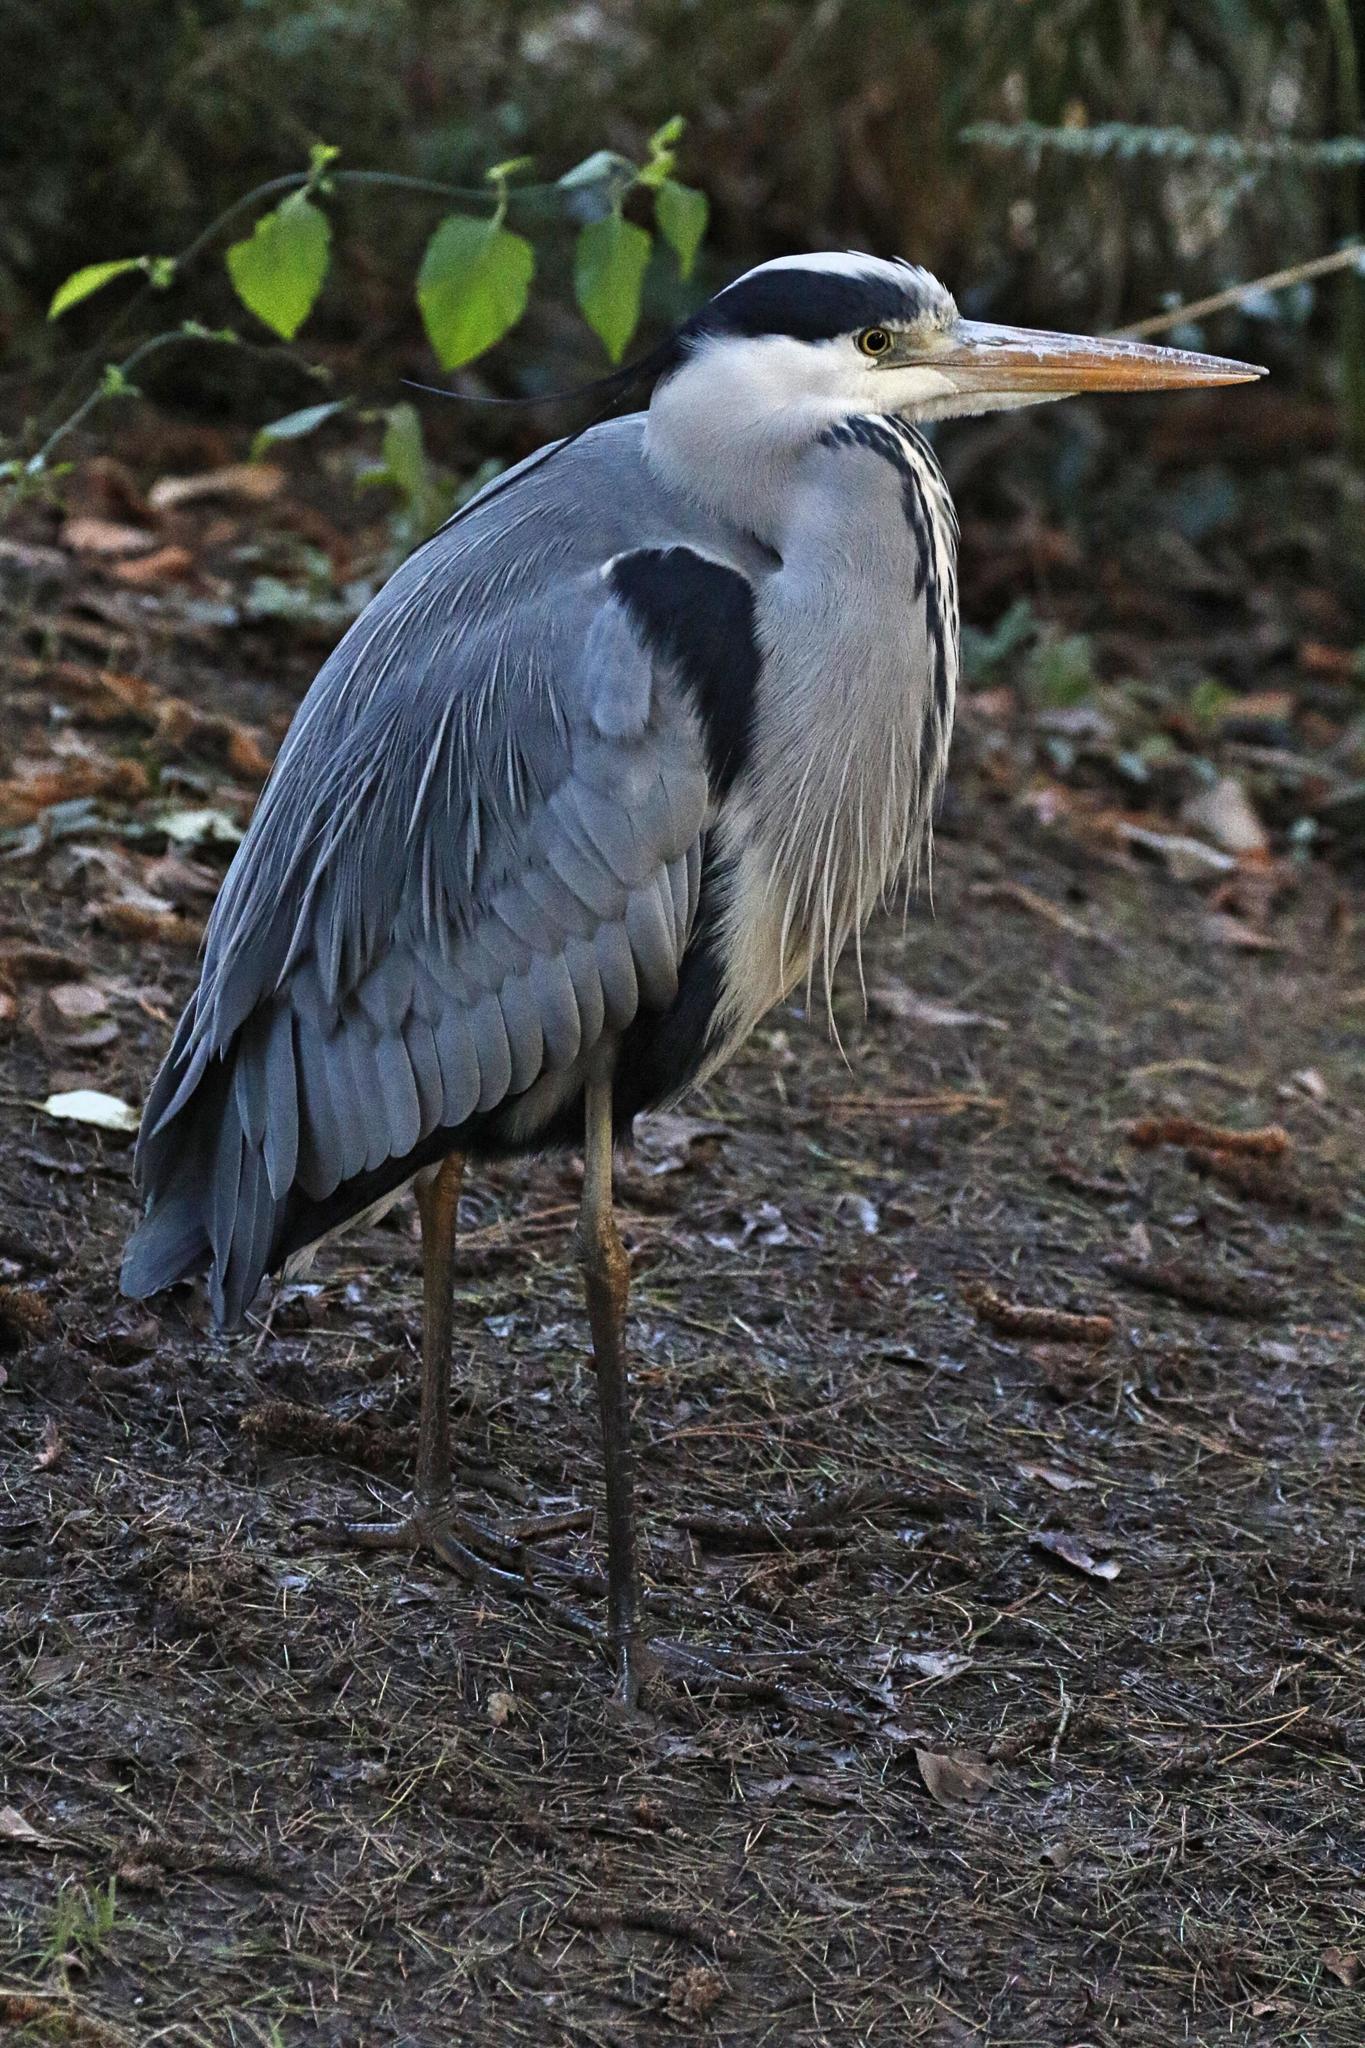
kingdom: Animalia
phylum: Chordata
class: Aves
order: Pelecaniformes
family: Ardeidae
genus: Ardea
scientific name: Ardea cinerea
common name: Grey heron
